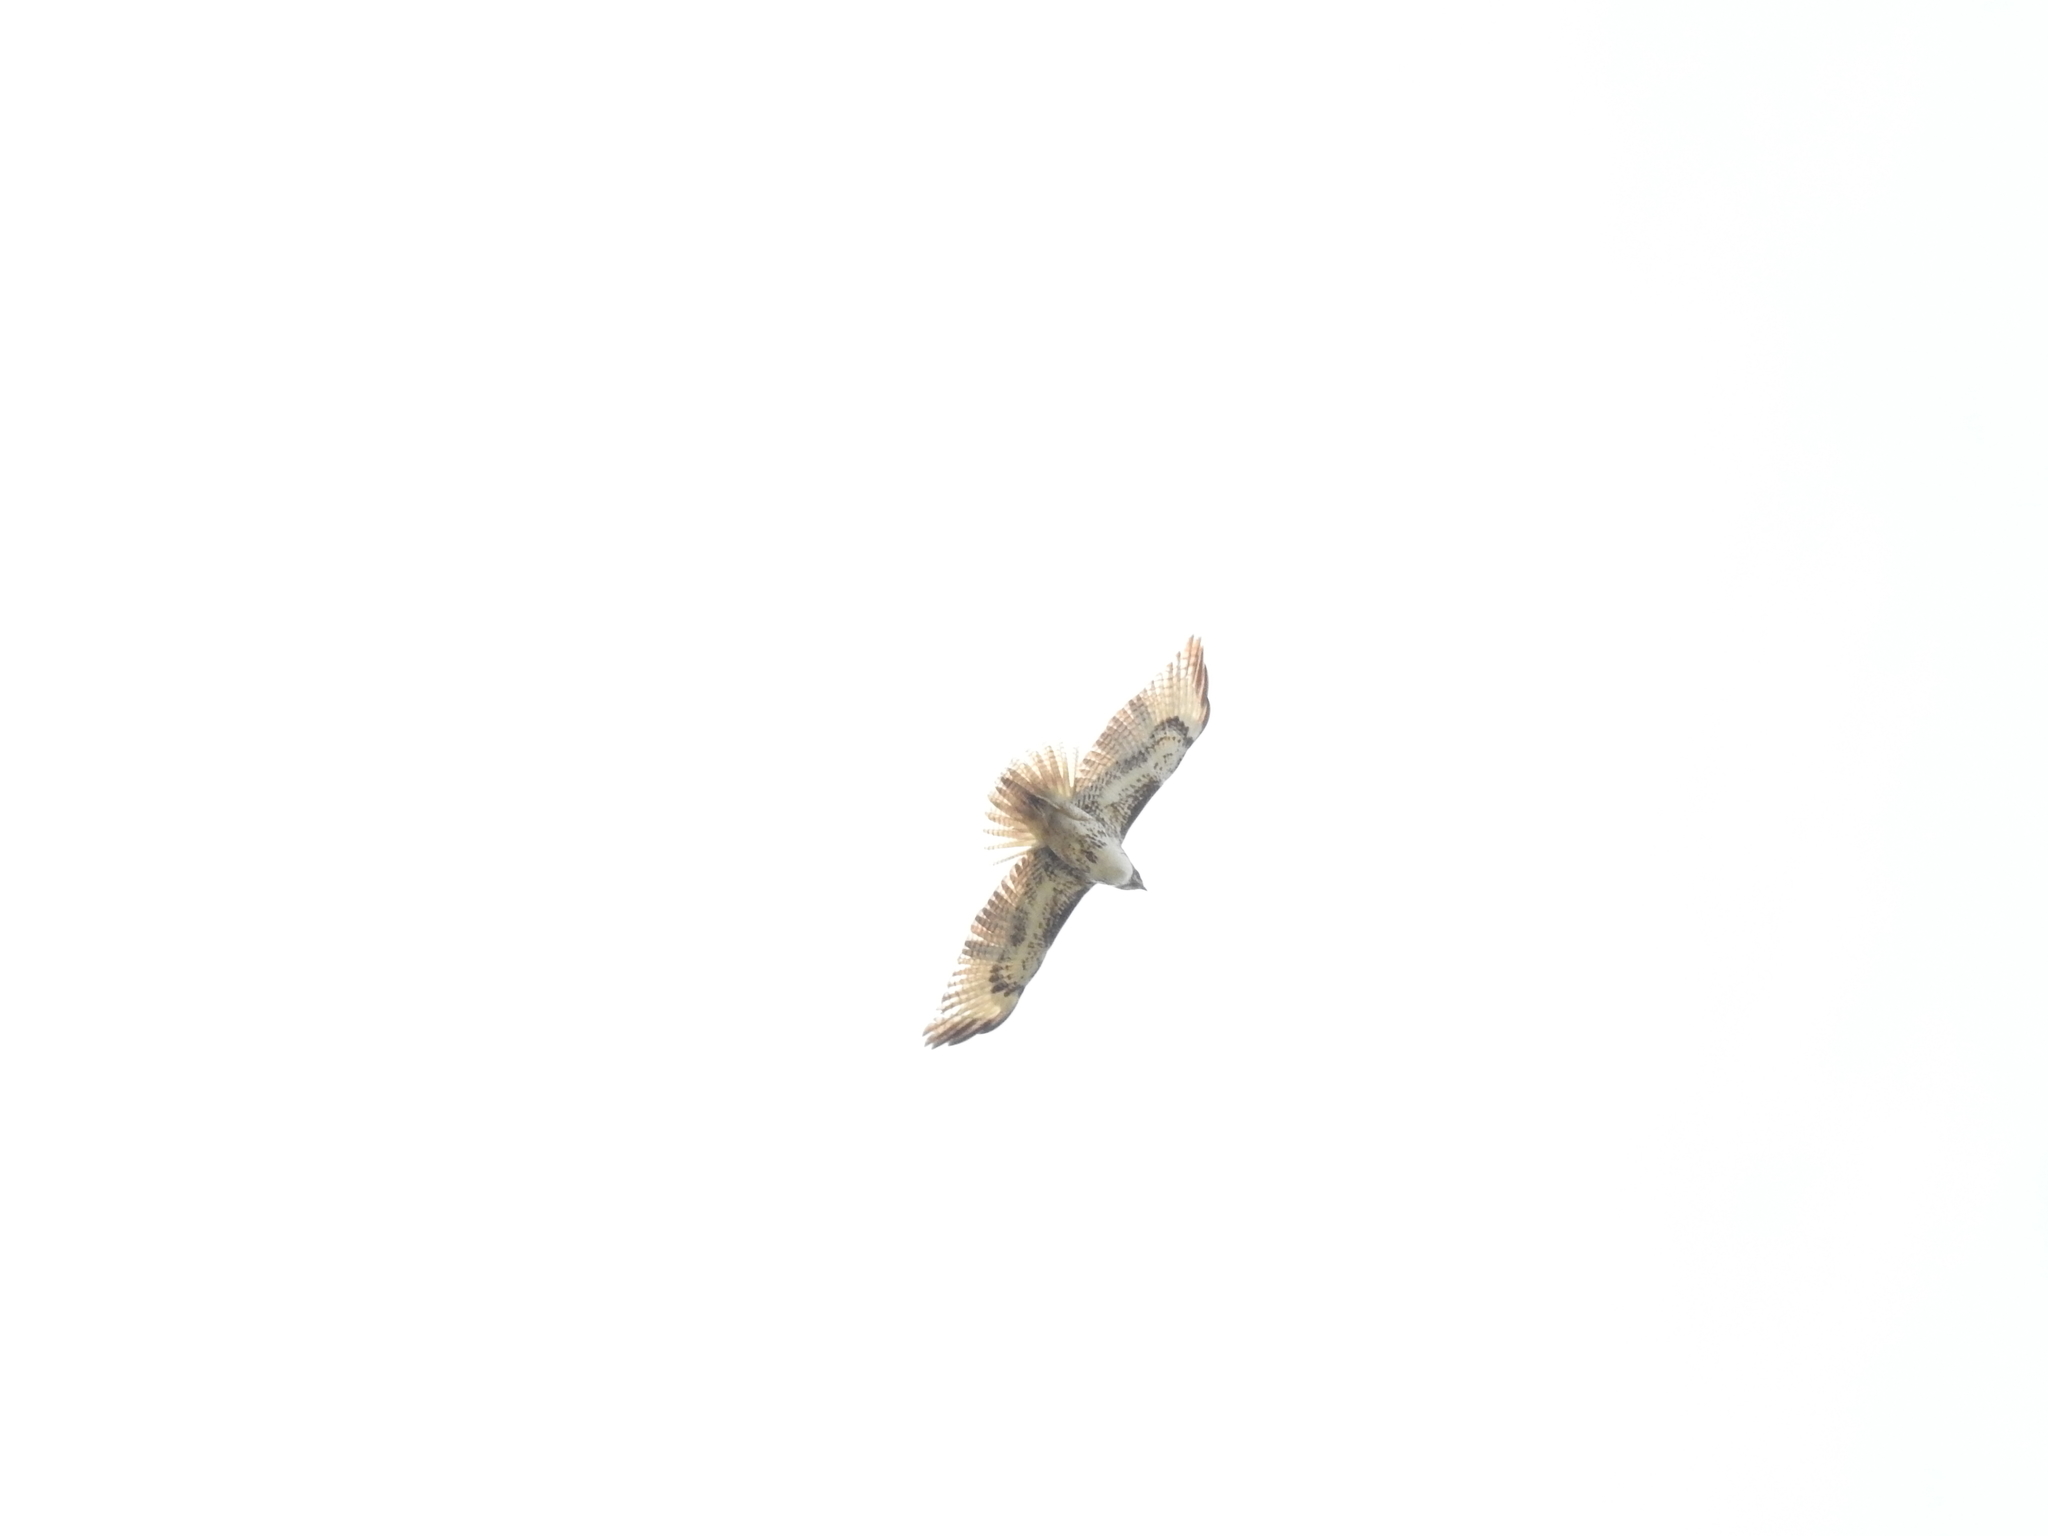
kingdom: Animalia
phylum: Chordata
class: Aves
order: Accipitriformes
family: Accipitridae
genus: Buteo
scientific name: Buteo jamaicensis
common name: Red-tailed hawk
